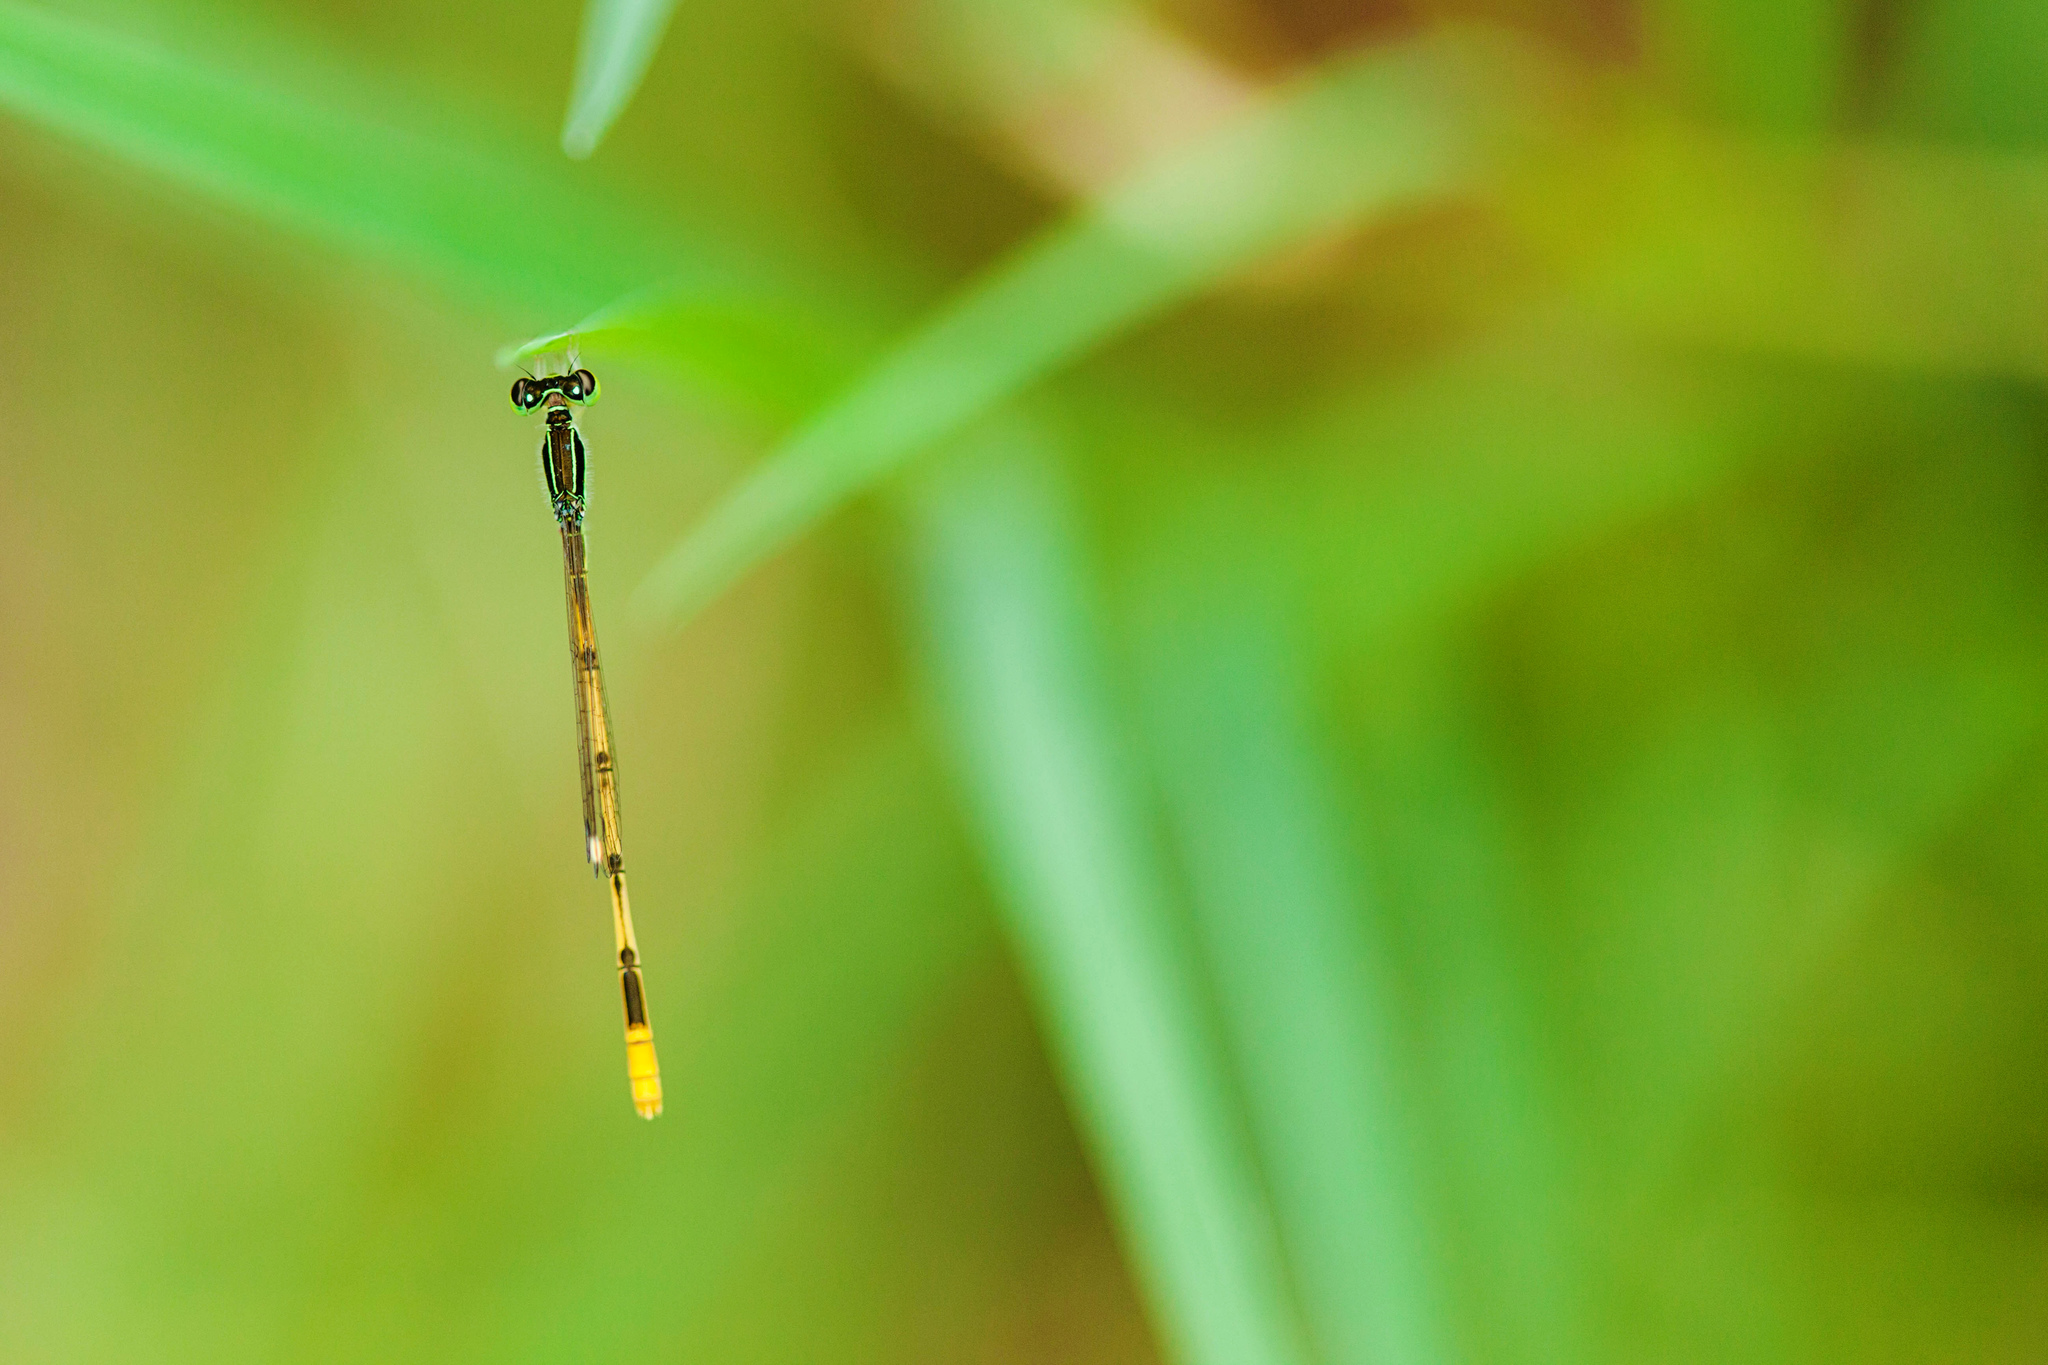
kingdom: Animalia
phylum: Arthropoda
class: Insecta
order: Odonata
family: Coenagrionidae
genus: Ischnura
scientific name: Ischnura hastata
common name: Citrine forktail
